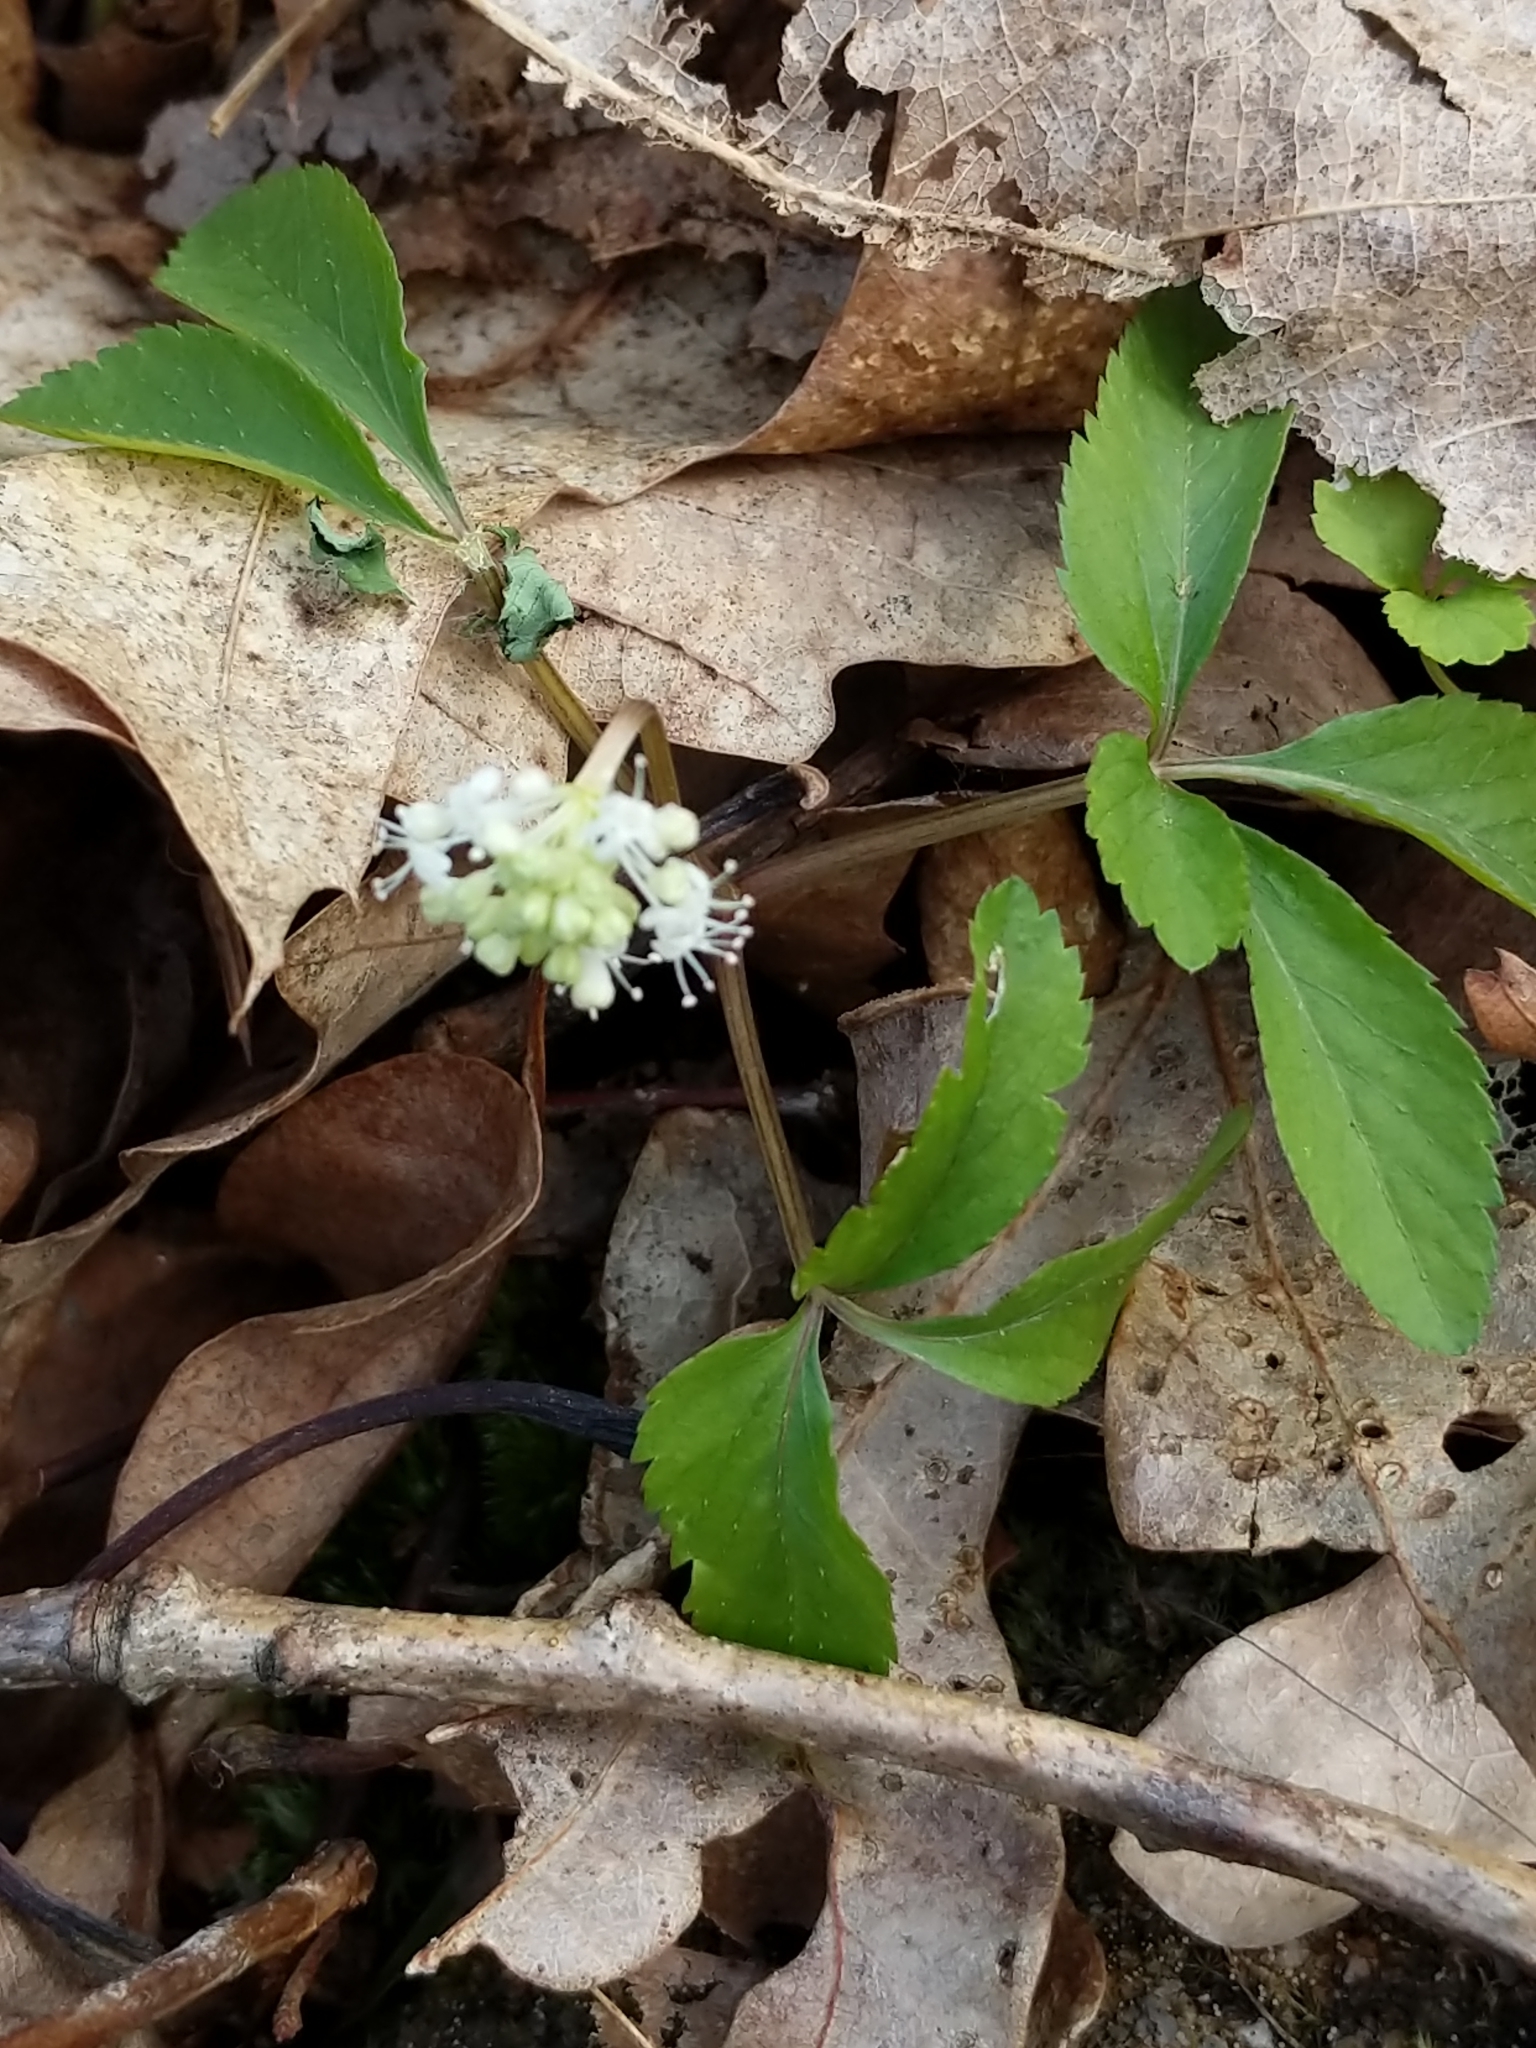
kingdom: Plantae
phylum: Tracheophyta
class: Magnoliopsida
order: Apiales
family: Araliaceae
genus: Panax
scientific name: Panax trifolius
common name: Dwarf ginseng
